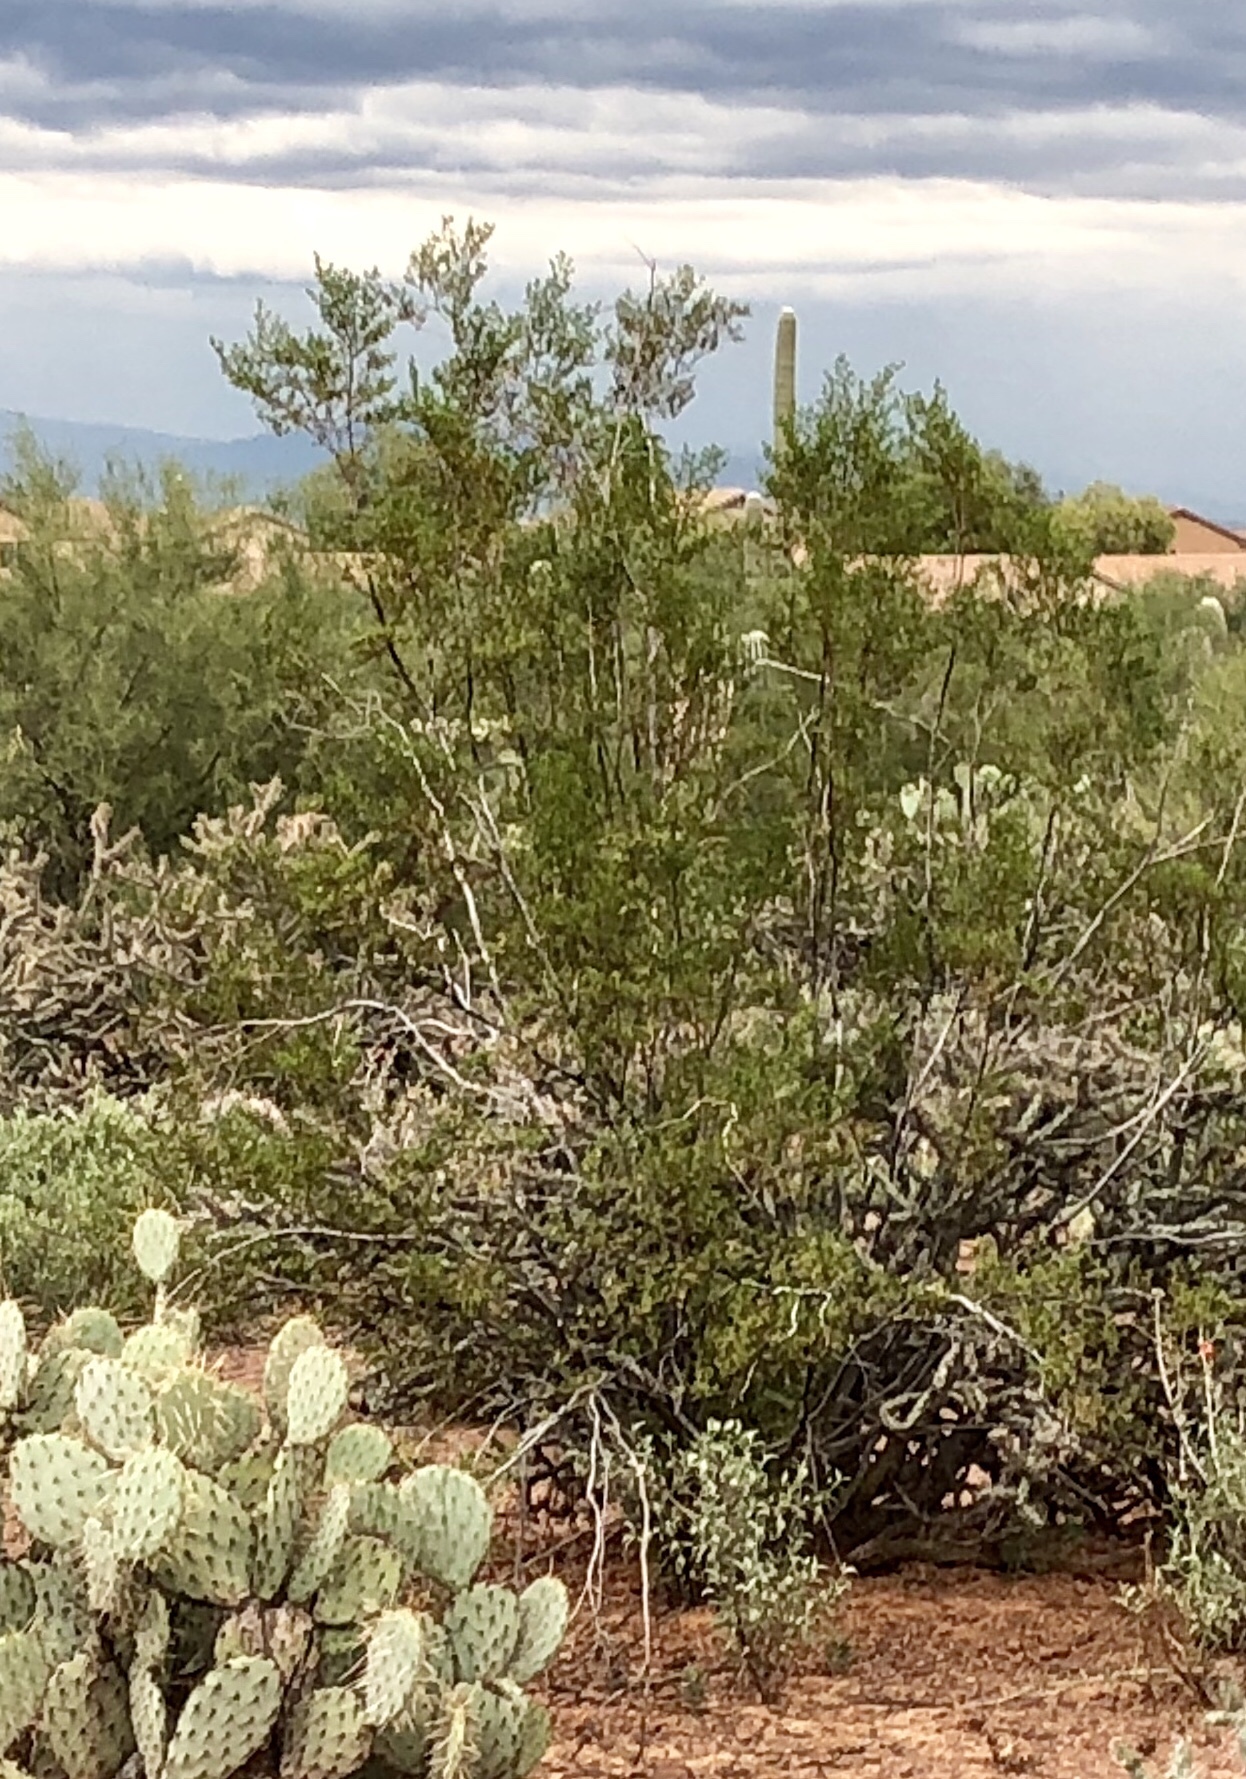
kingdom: Plantae
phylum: Tracheophyta
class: Magnoliopsida
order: Zygophyllales
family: Zygophyllaceae
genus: Larrea
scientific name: Larrea tridentata
